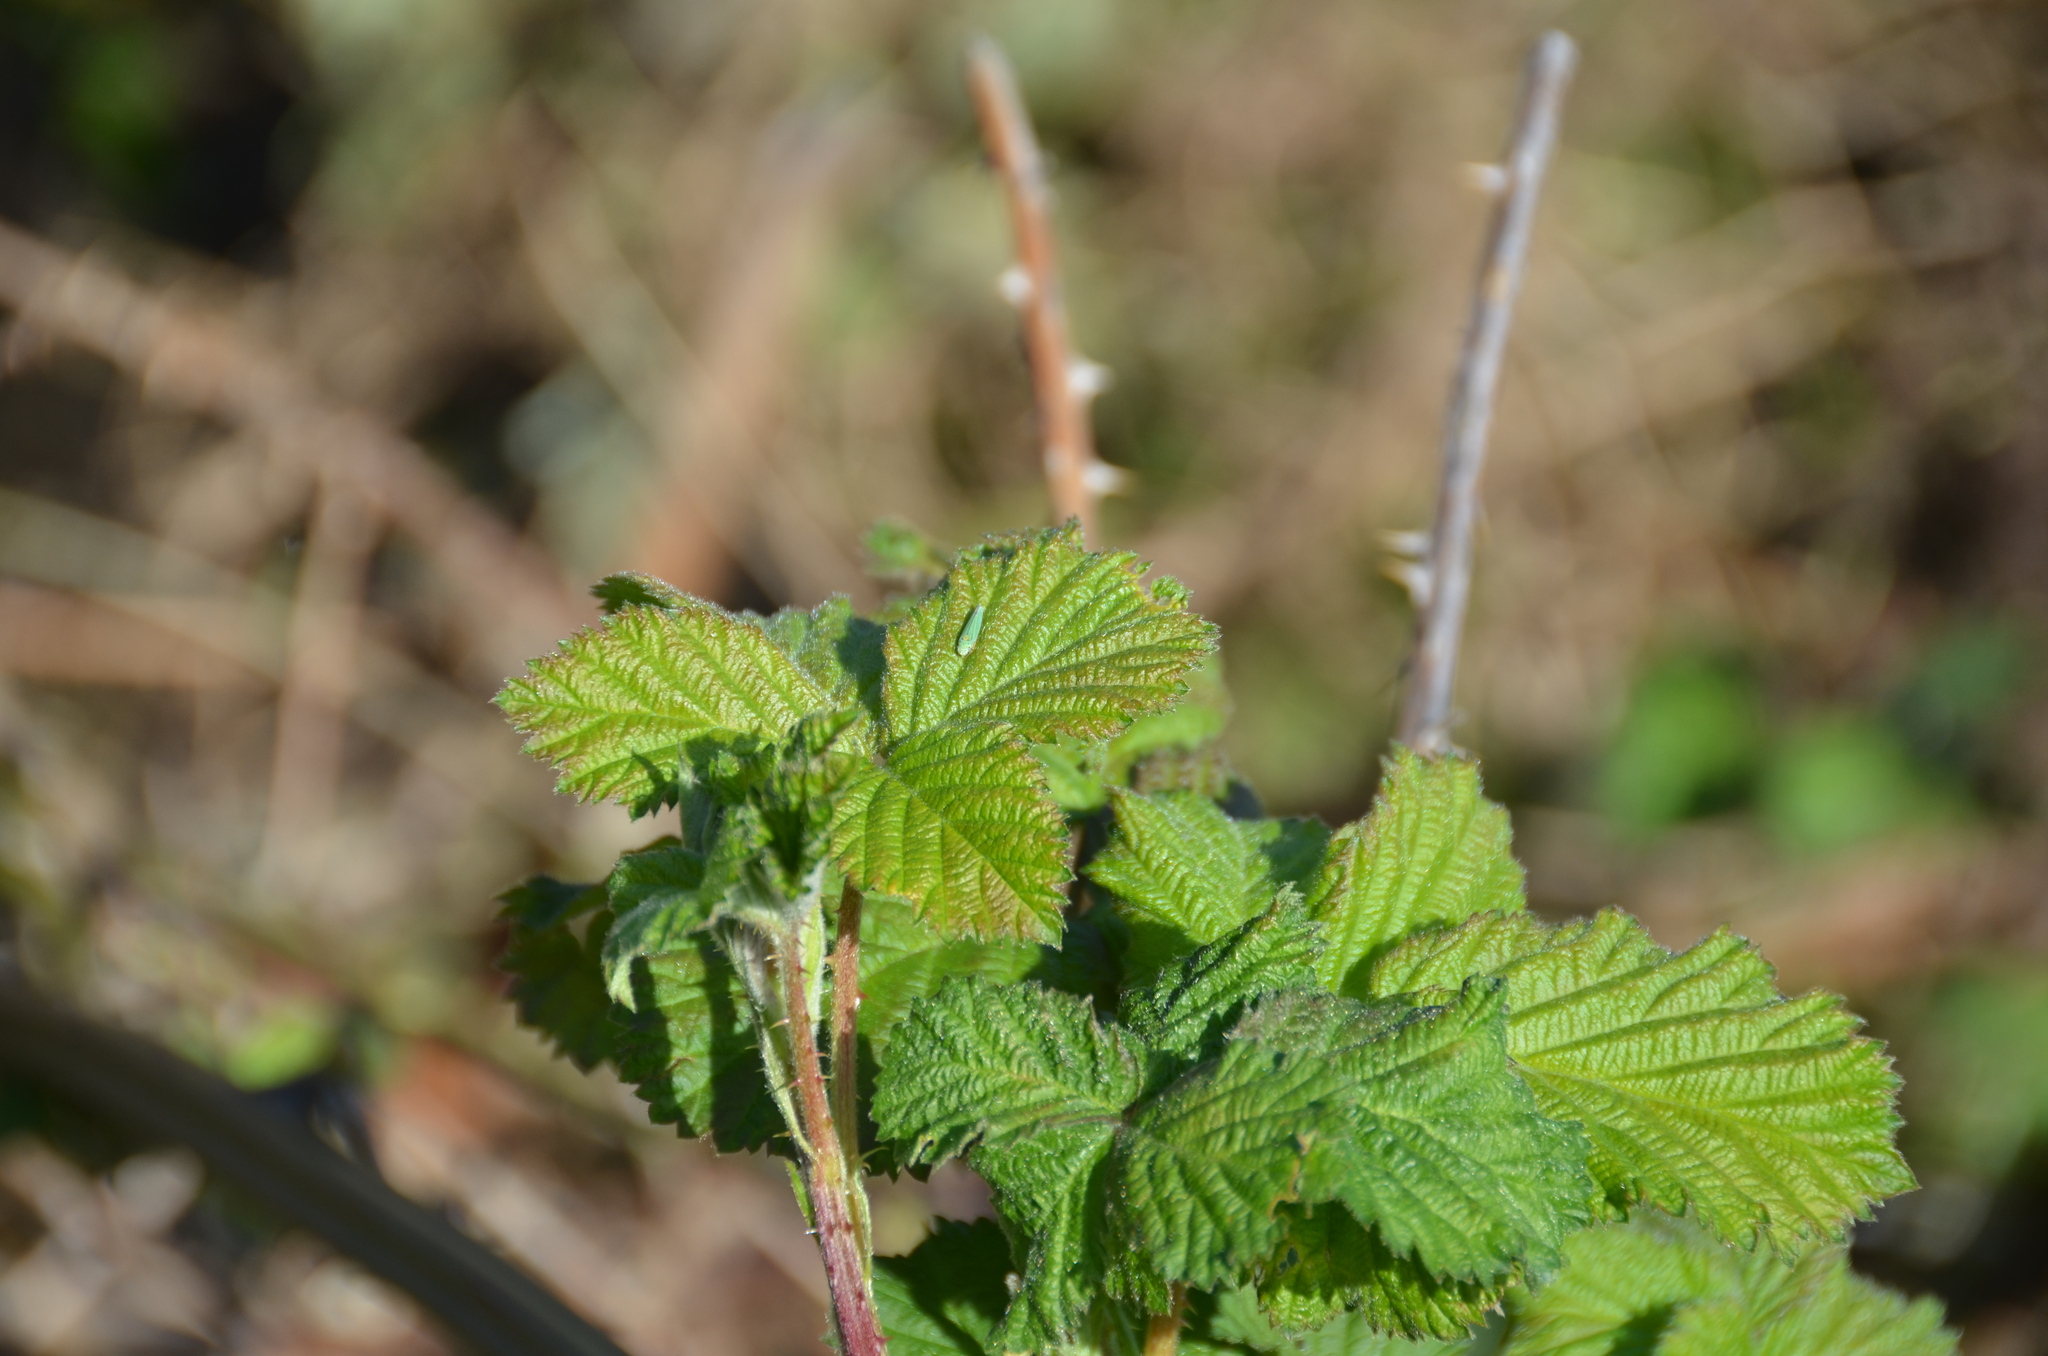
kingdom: Animalia
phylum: Arthropoda
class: Insecta
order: Hemiptera
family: Cicadellidae
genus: Graphocephala
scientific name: Graphocephala atropunctata
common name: Blue-green sharpshooter
